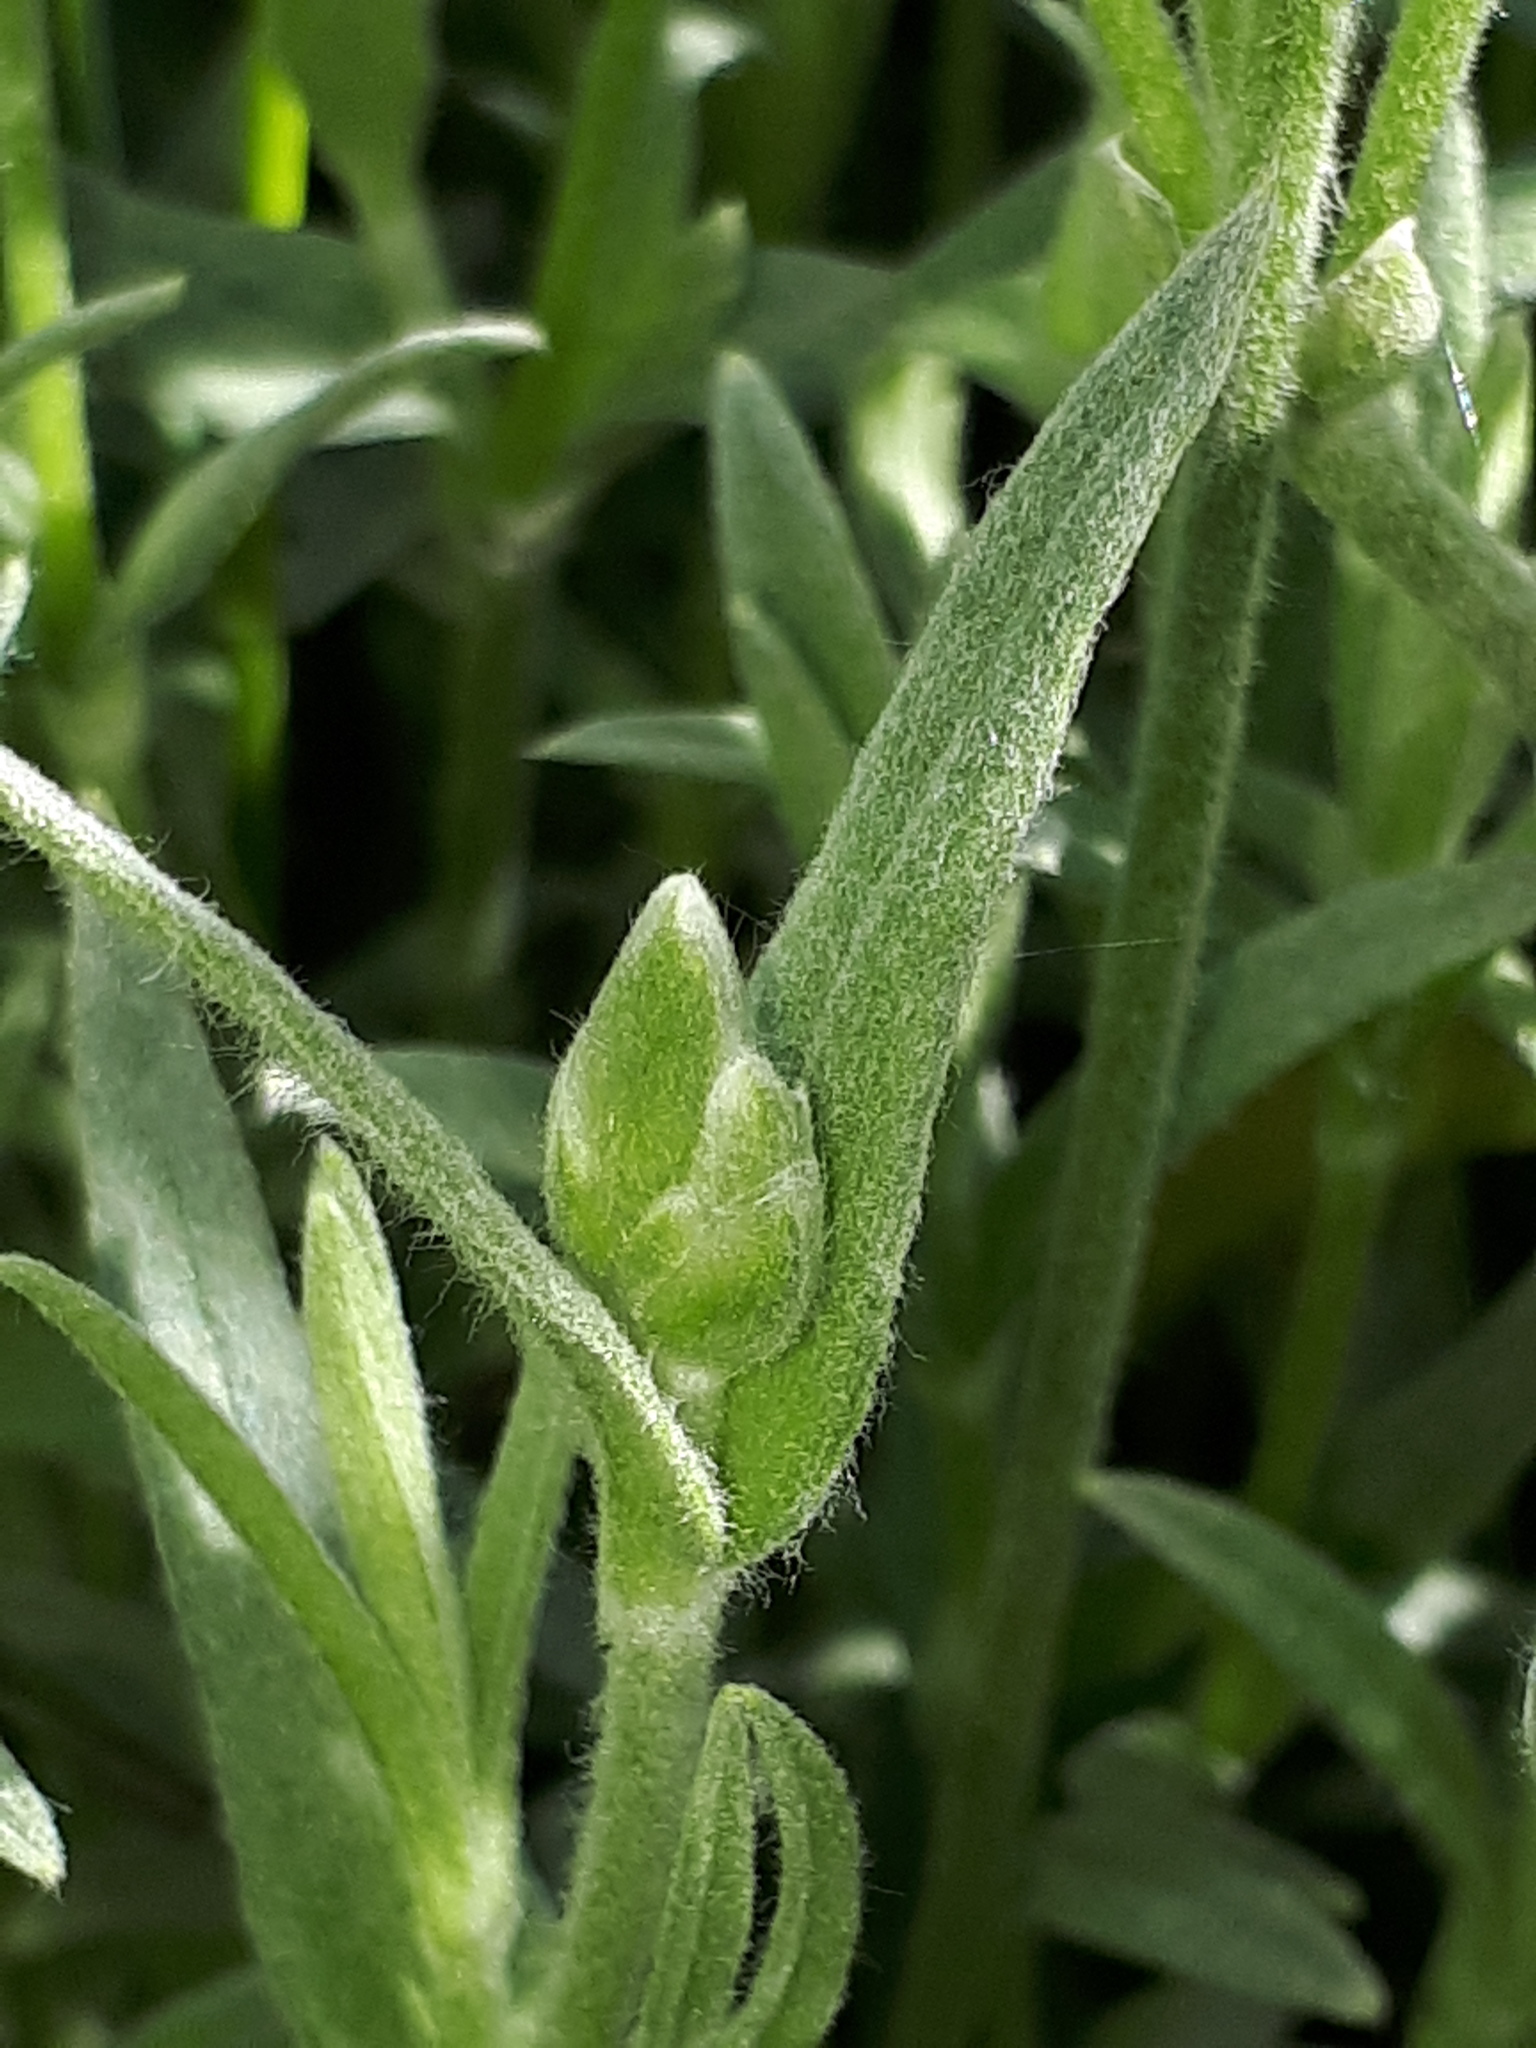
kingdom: Plantae
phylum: Tracheophyta
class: Magnoliopsida
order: Caryophyllales
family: Caryophyllaceae
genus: Cerastium
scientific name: Cerastium tomentosum
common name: Snow-in-summer
